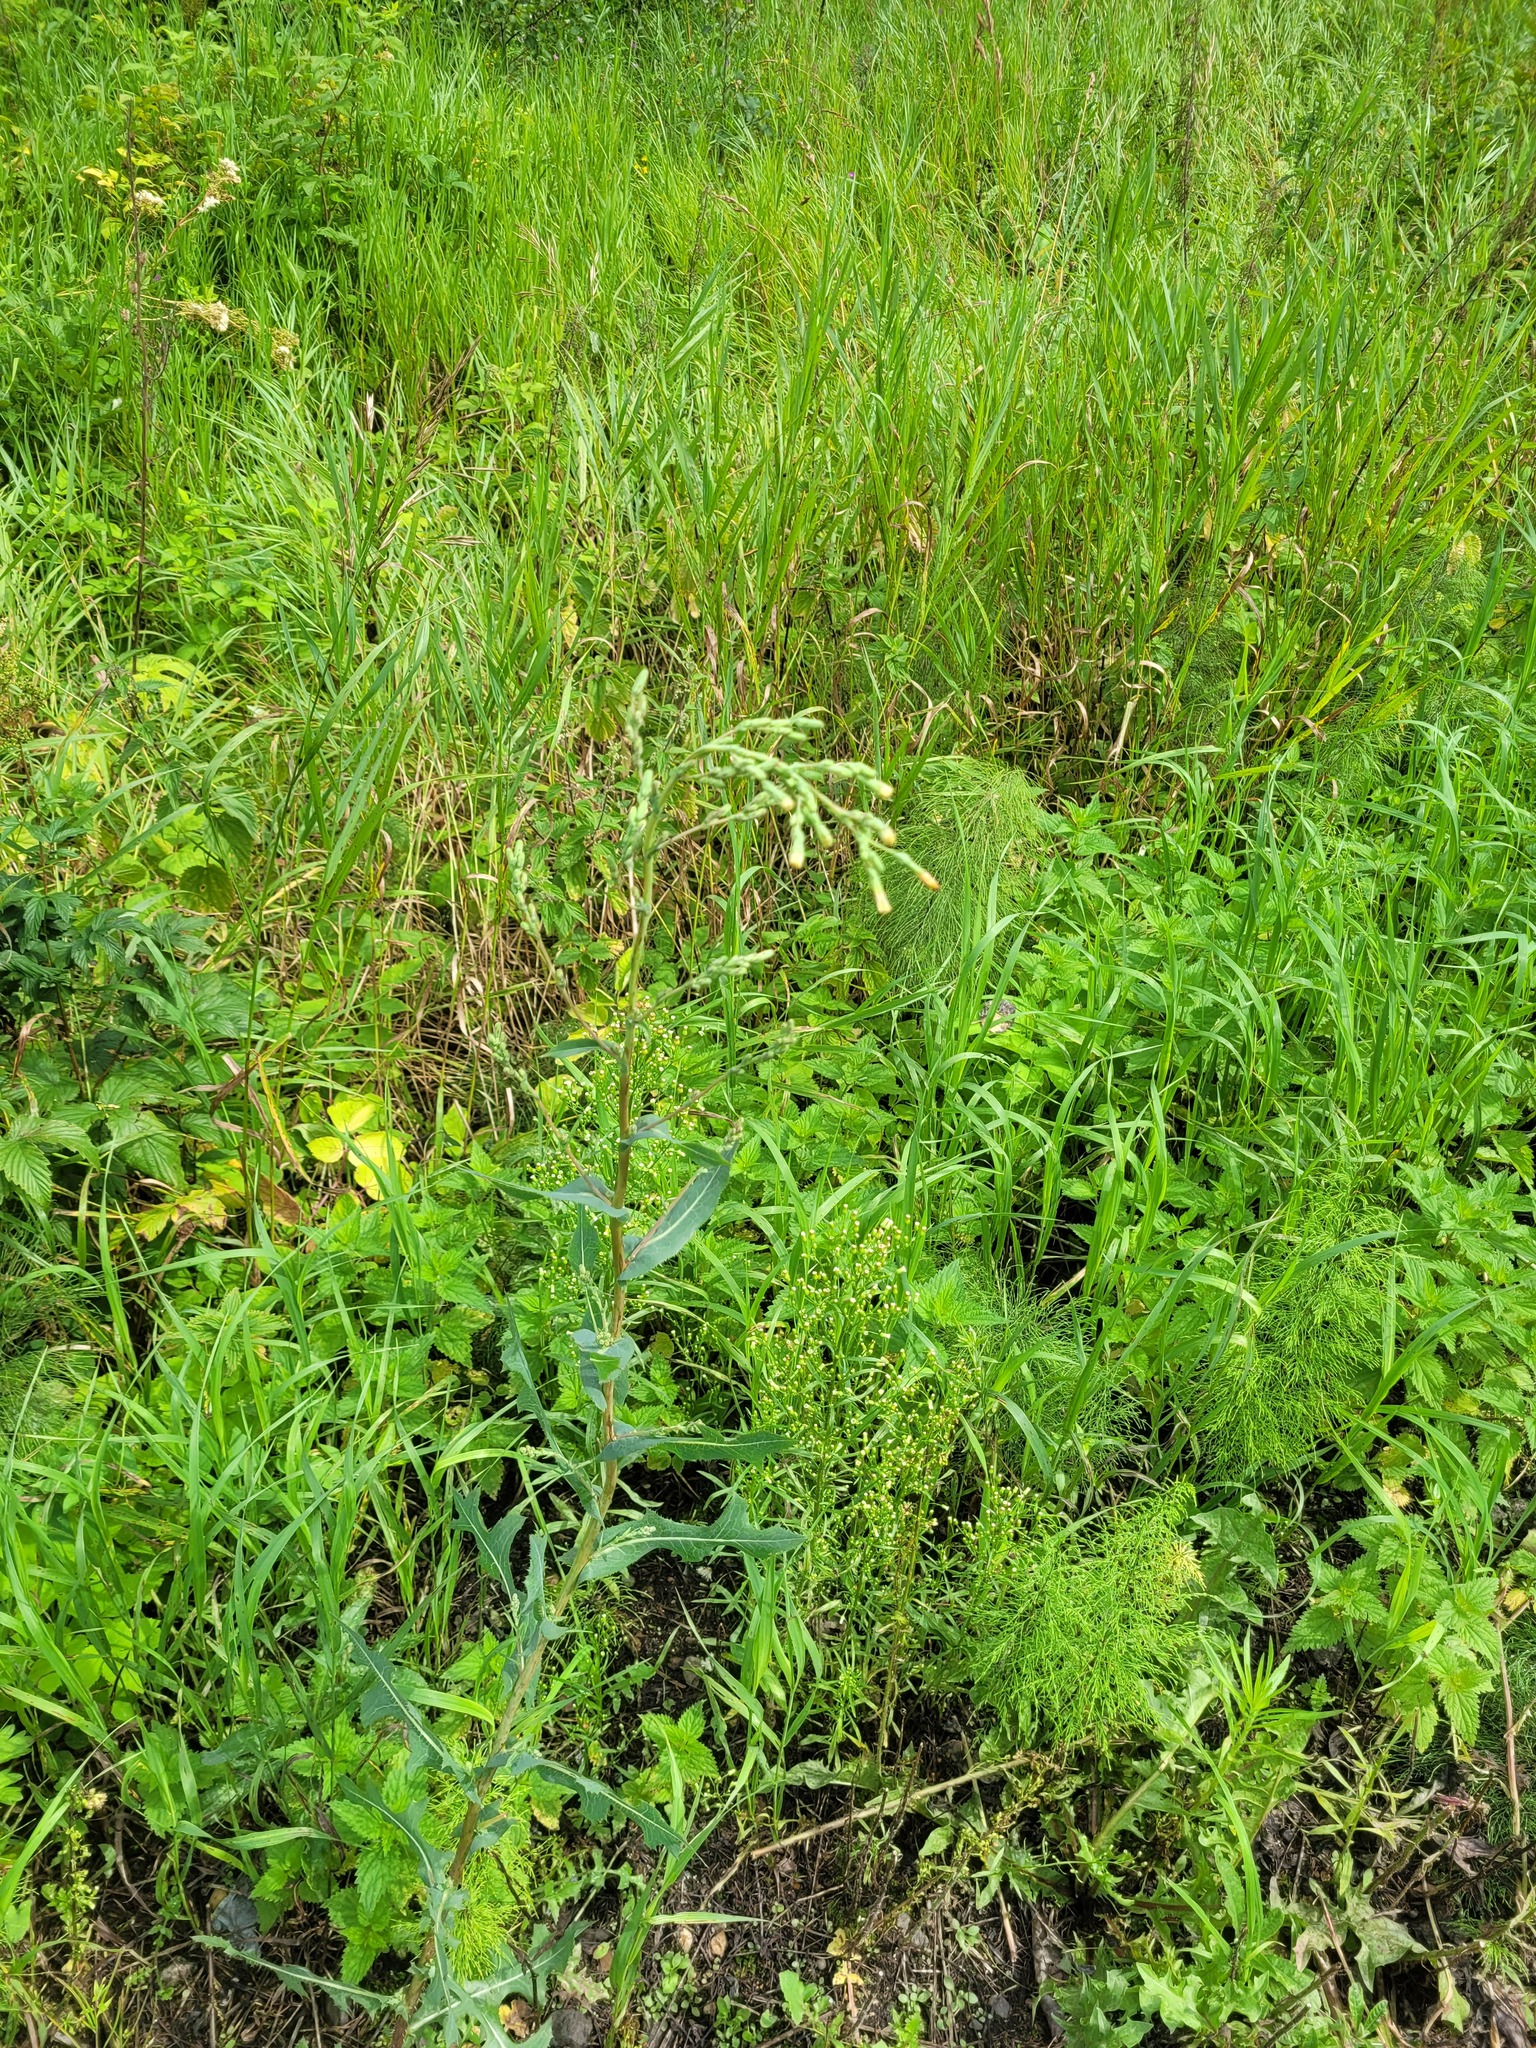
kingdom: Plantae
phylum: Tracheophyta
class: Magnoliopsida
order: Asterales
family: Asteraceae
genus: Lactuca
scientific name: Lactuca serriola
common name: Prickly lettuce
